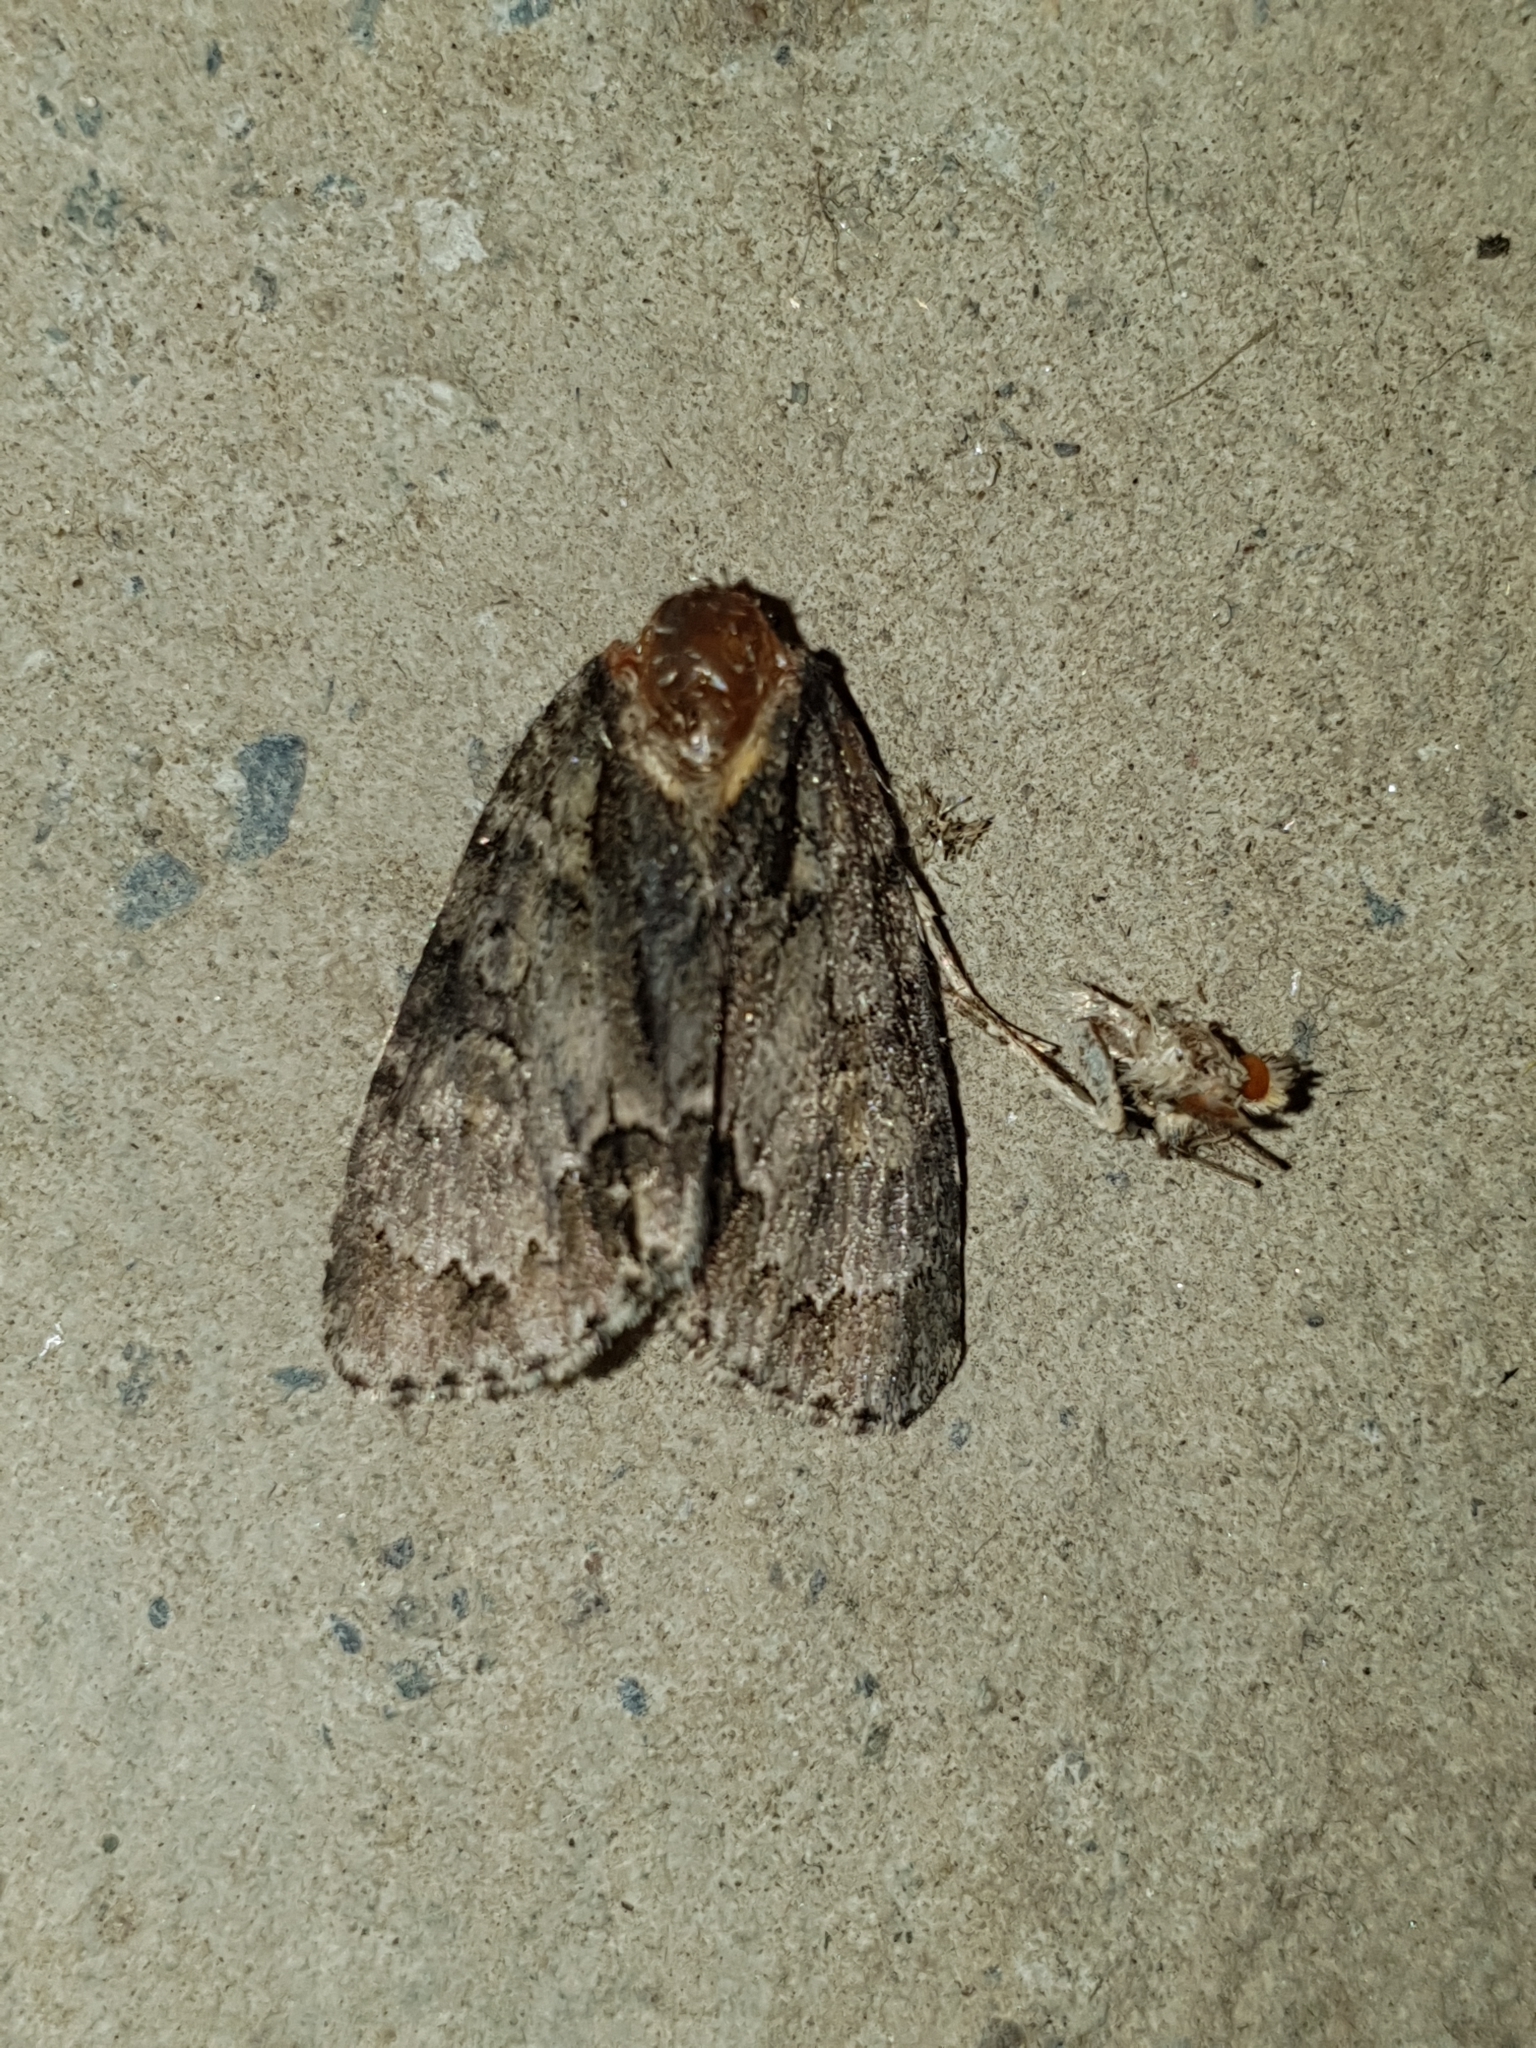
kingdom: Animalia
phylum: Arthropoda
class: Insecta
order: Lepidoptera
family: Noctuidae
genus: Acronicta
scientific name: Acronicta strigosa
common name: Marsh dagger
